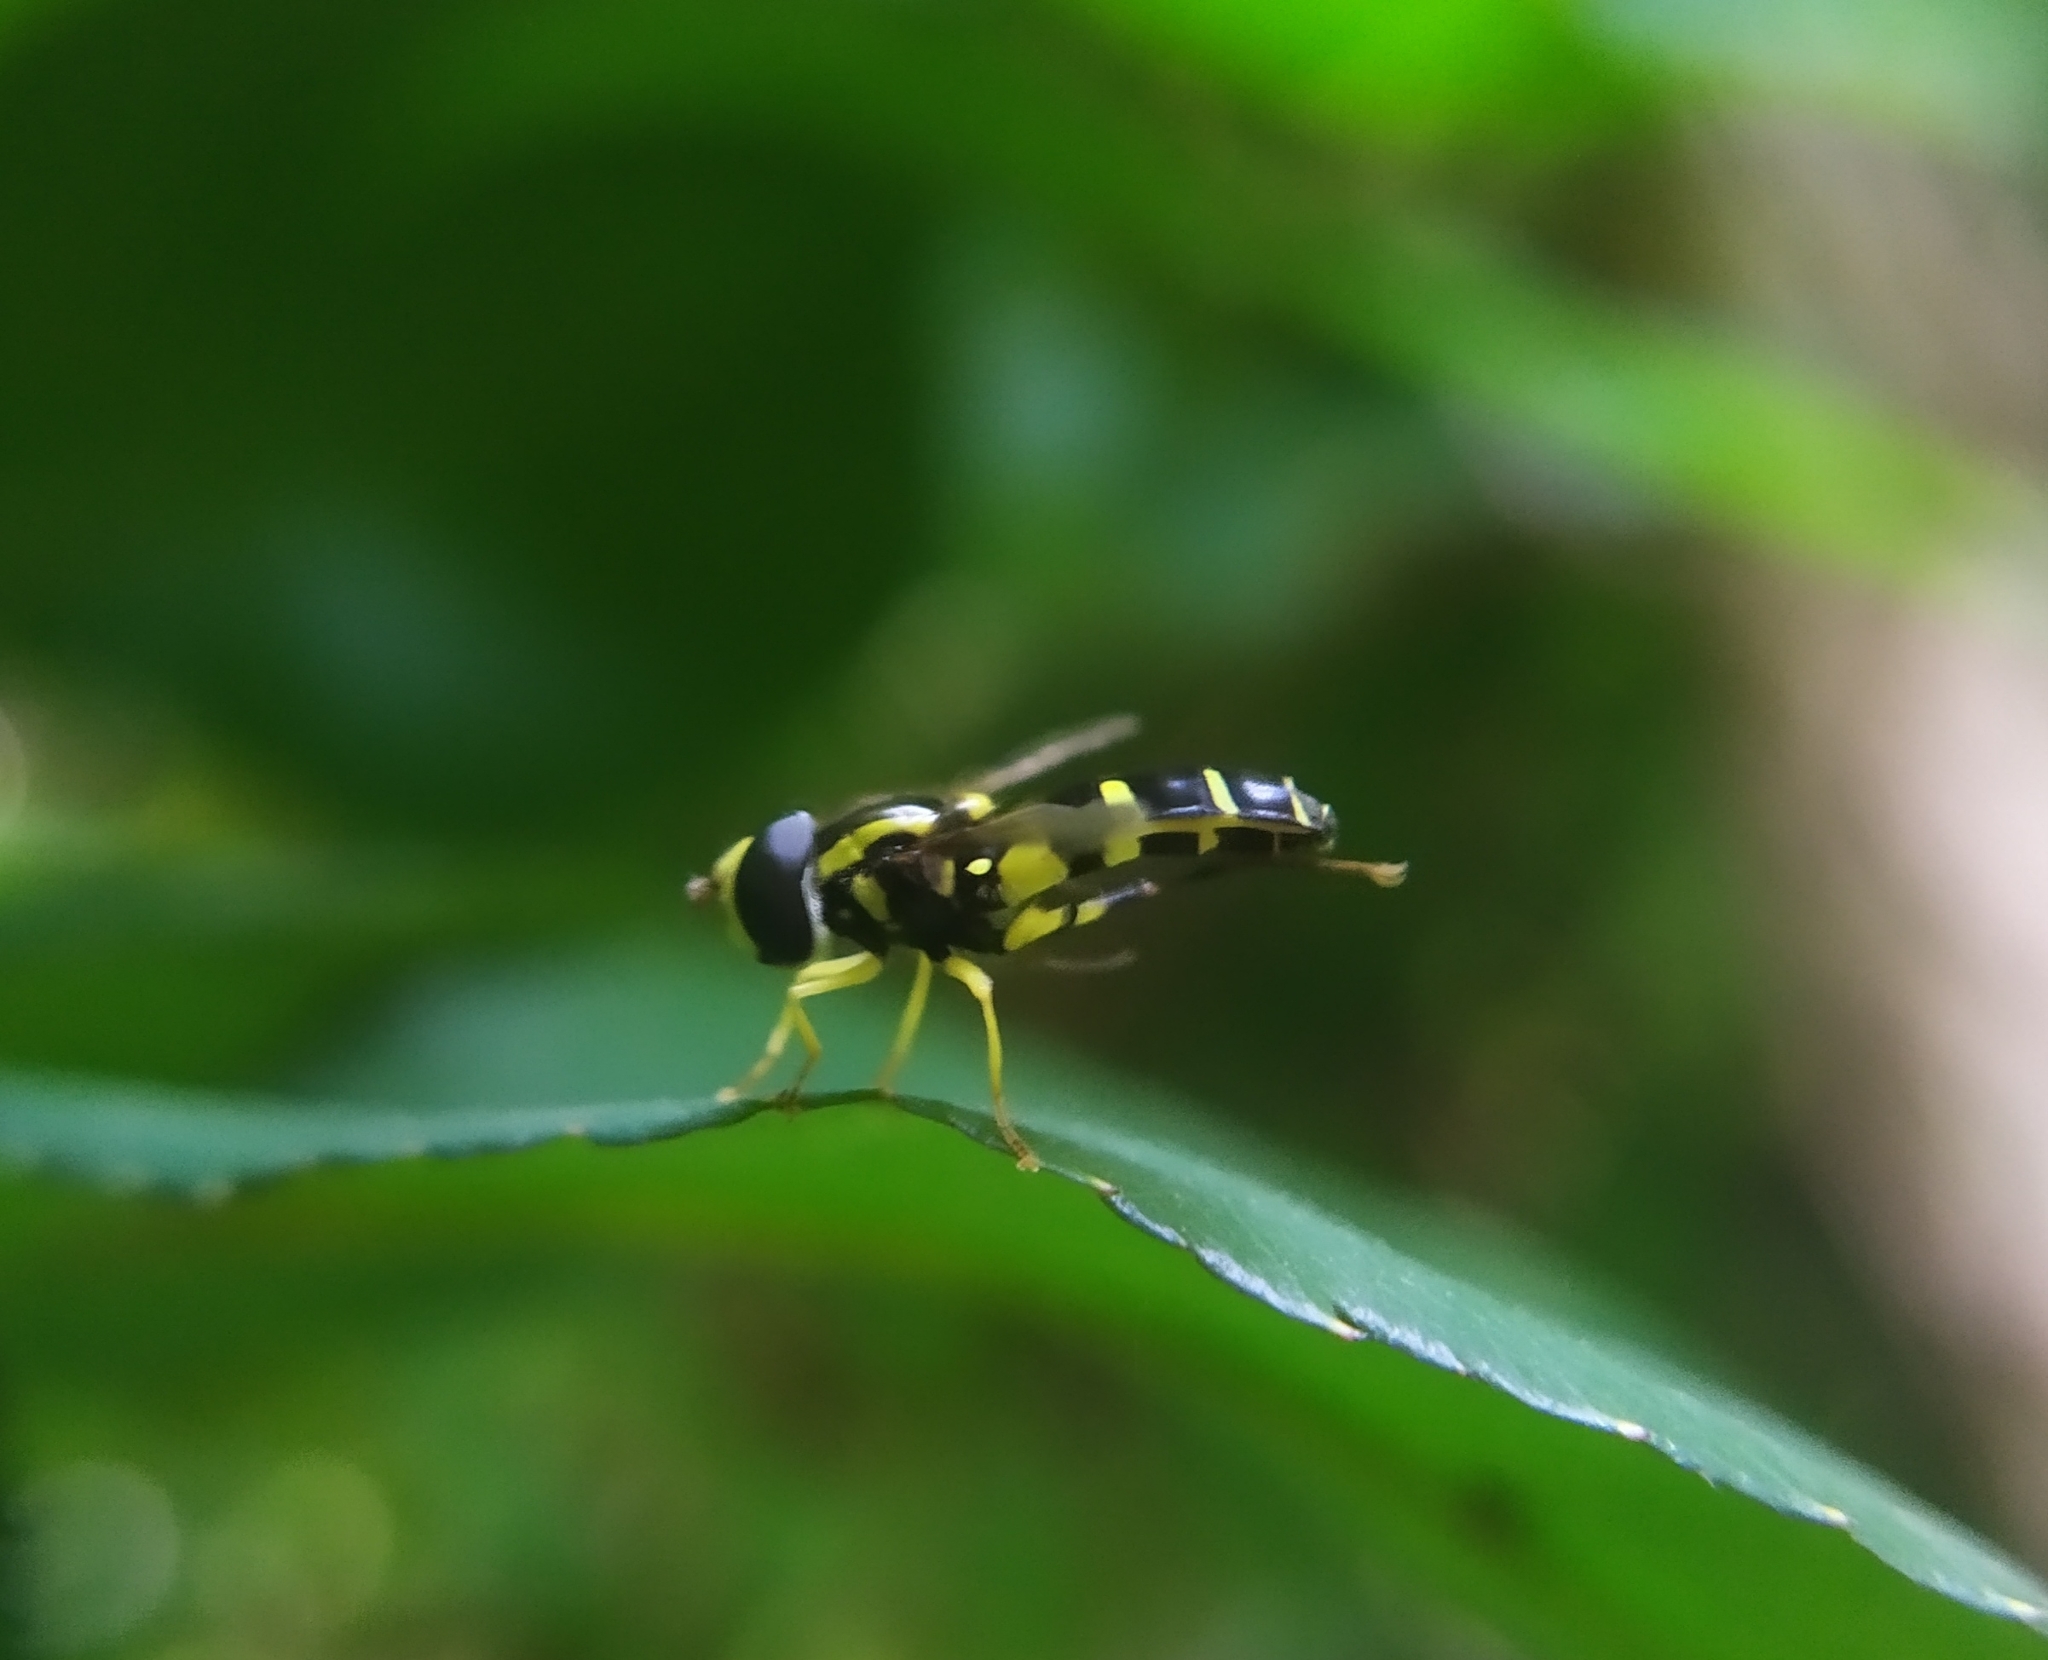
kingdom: Animalia
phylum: Arthropoda
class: Insecta
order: Diptera
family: Syrphidae
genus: Philhelius
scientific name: Philhelius dives
